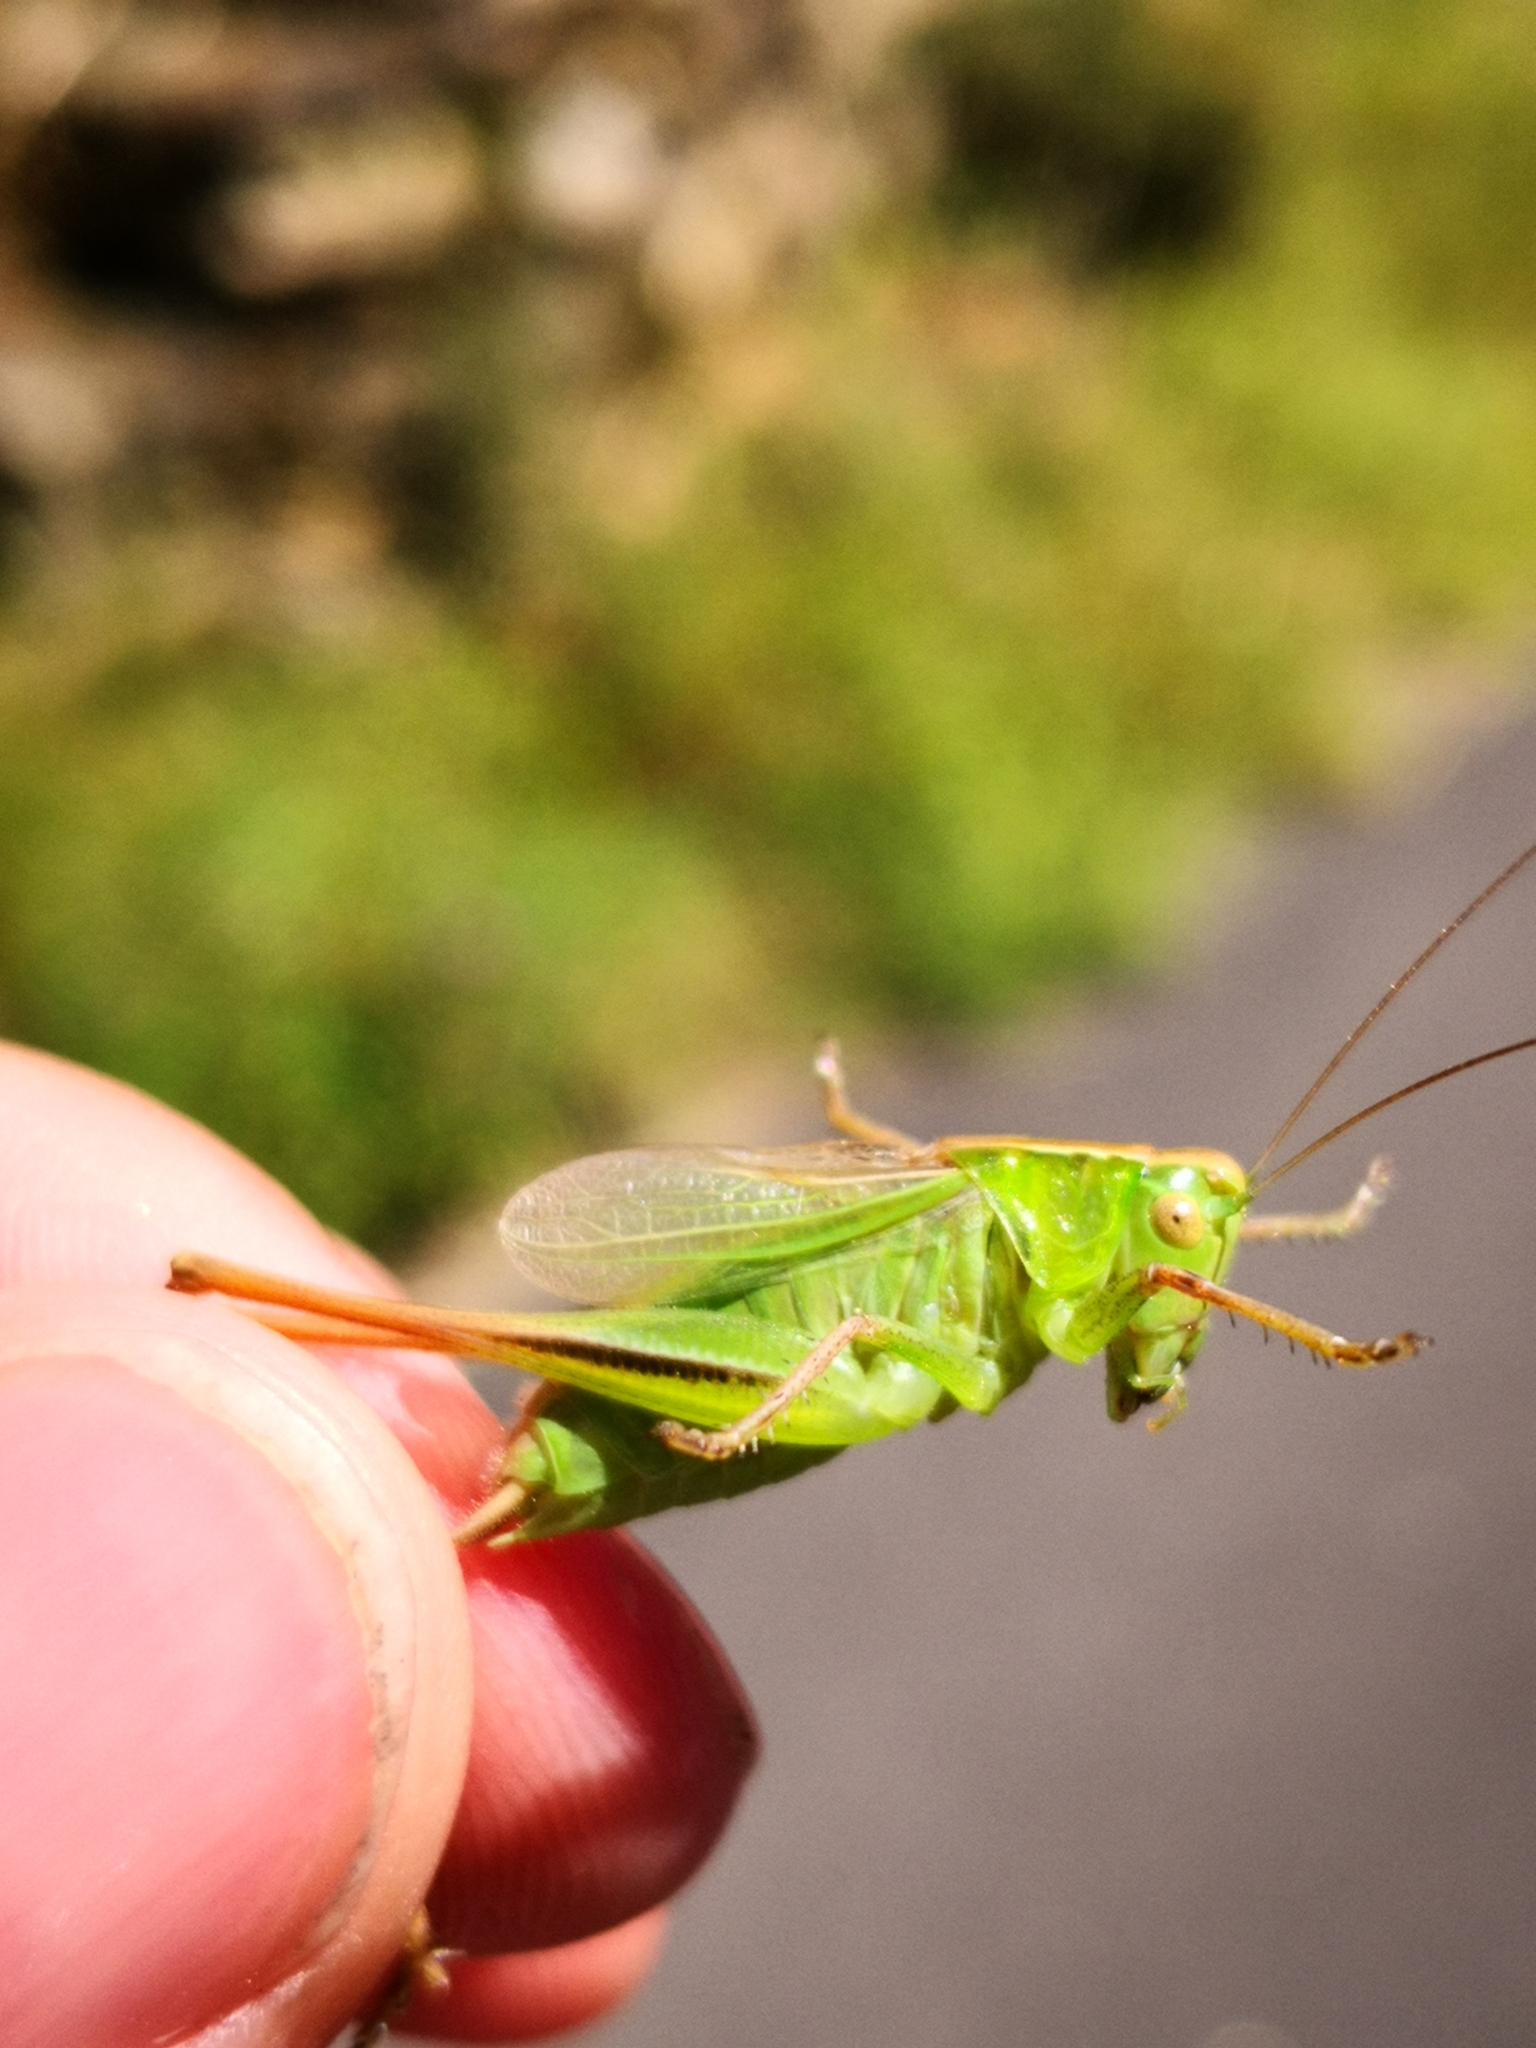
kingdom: Animalia
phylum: Arthropoda
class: Insecta
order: Orthoptera
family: Tettigoniidae
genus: Bicolorana
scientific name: Bicolorana bicolor
